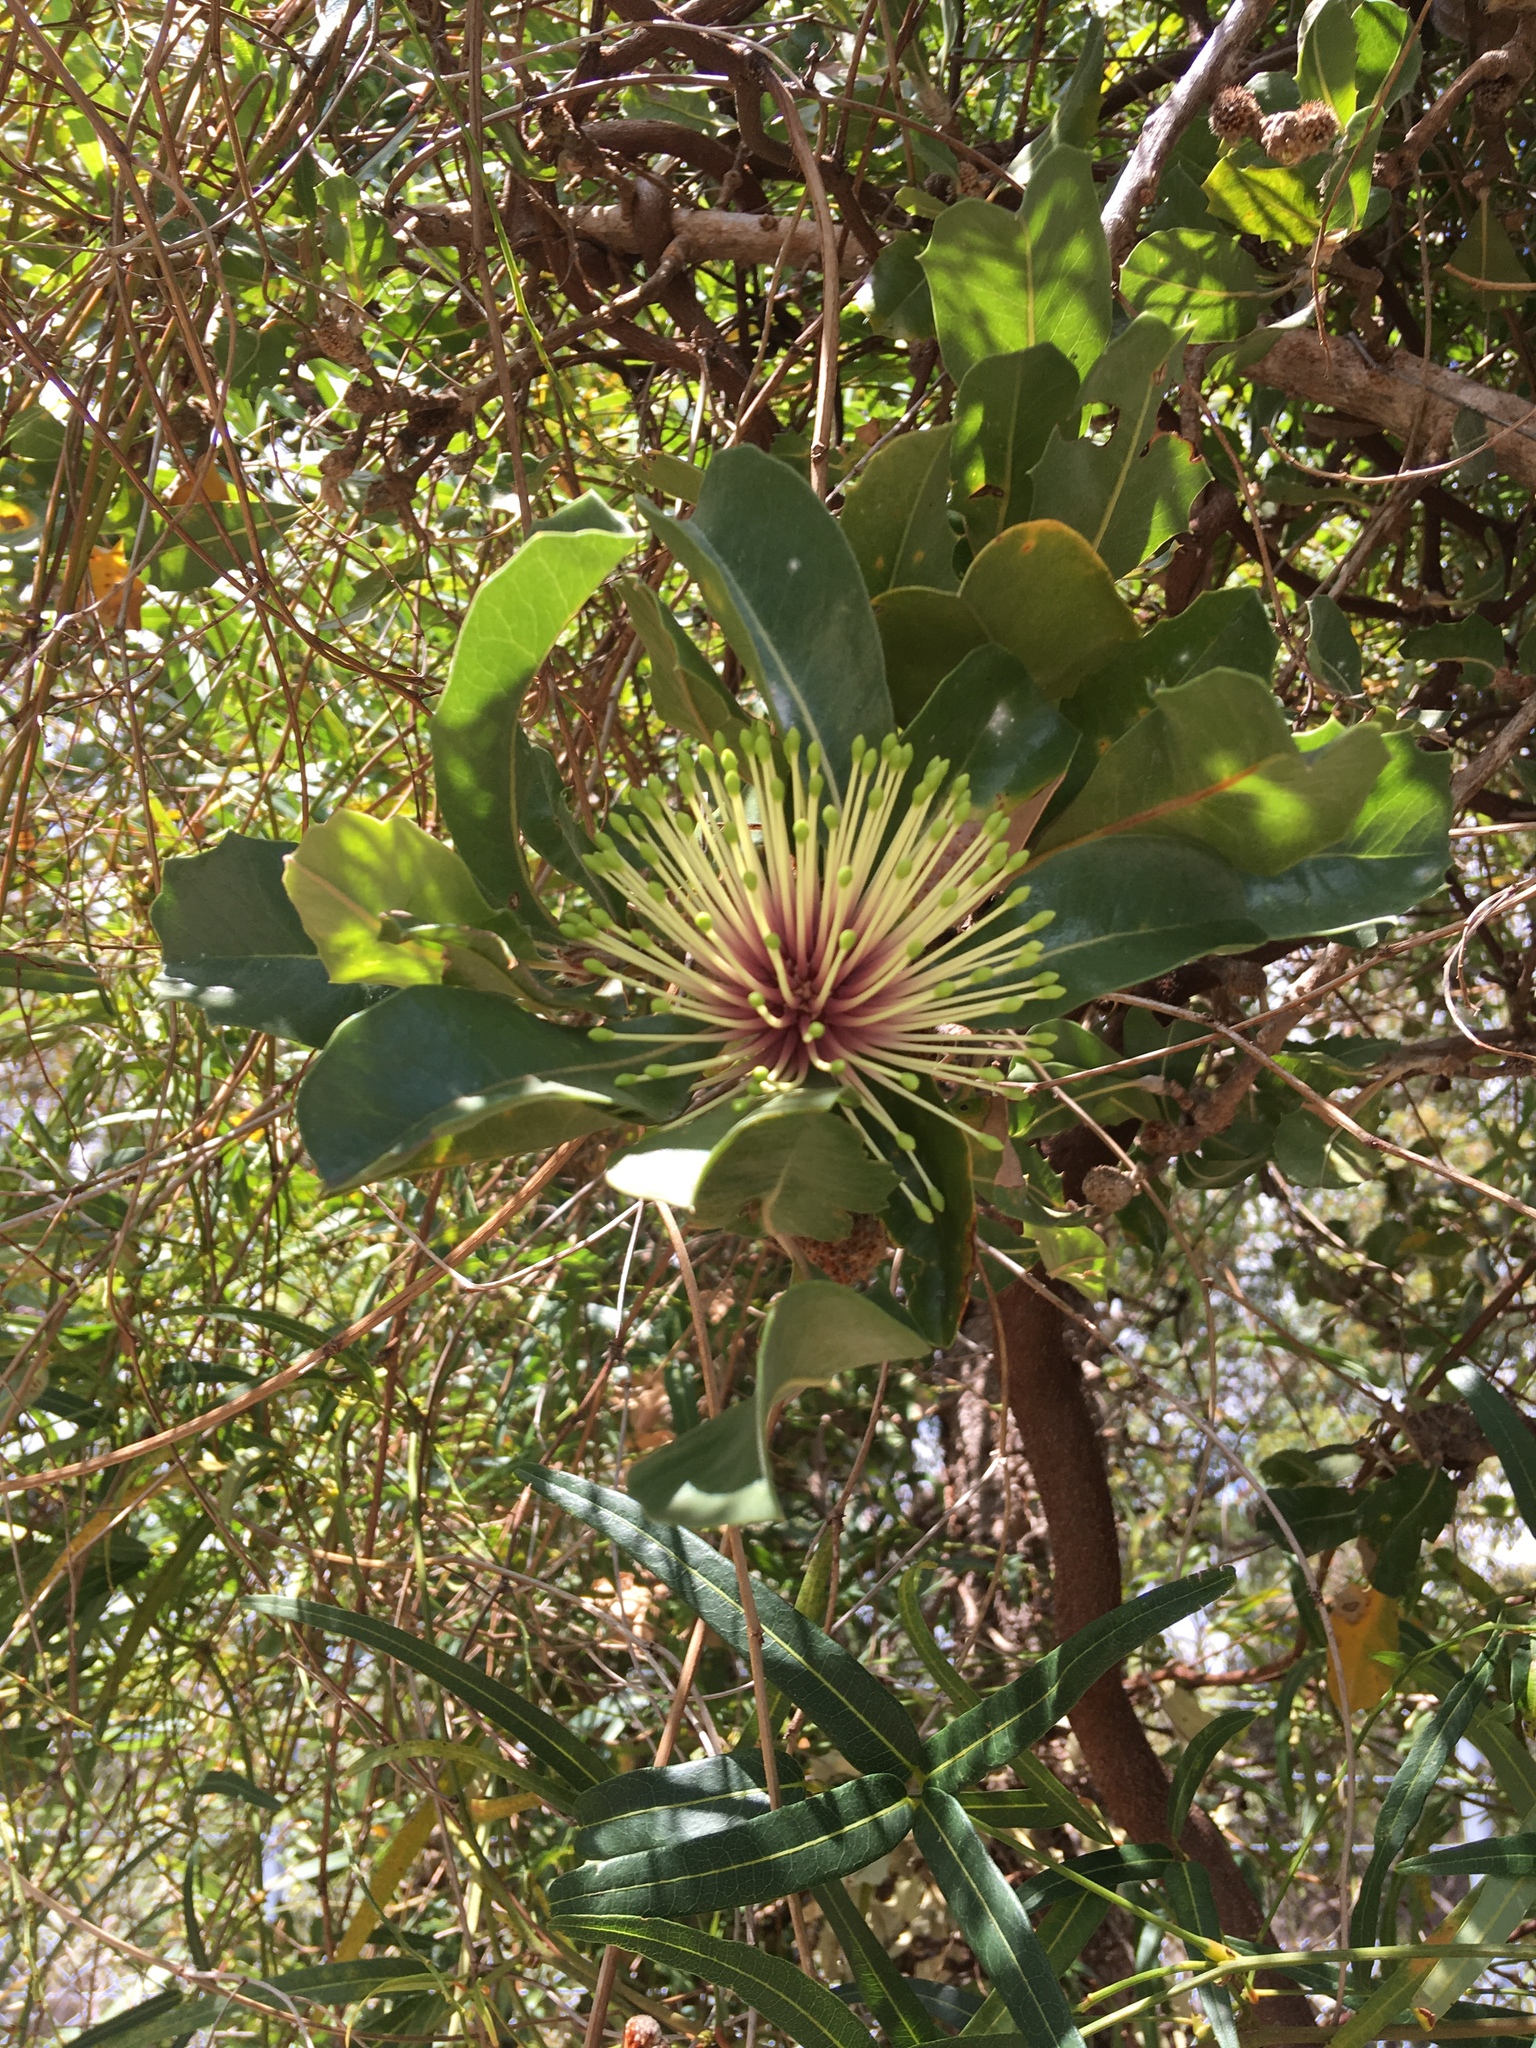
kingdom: Plantae
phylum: Tracheophyta
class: Magnoliopsida
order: Proteales
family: Proteaceae
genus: Banksia
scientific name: Banksia ilicifolia
